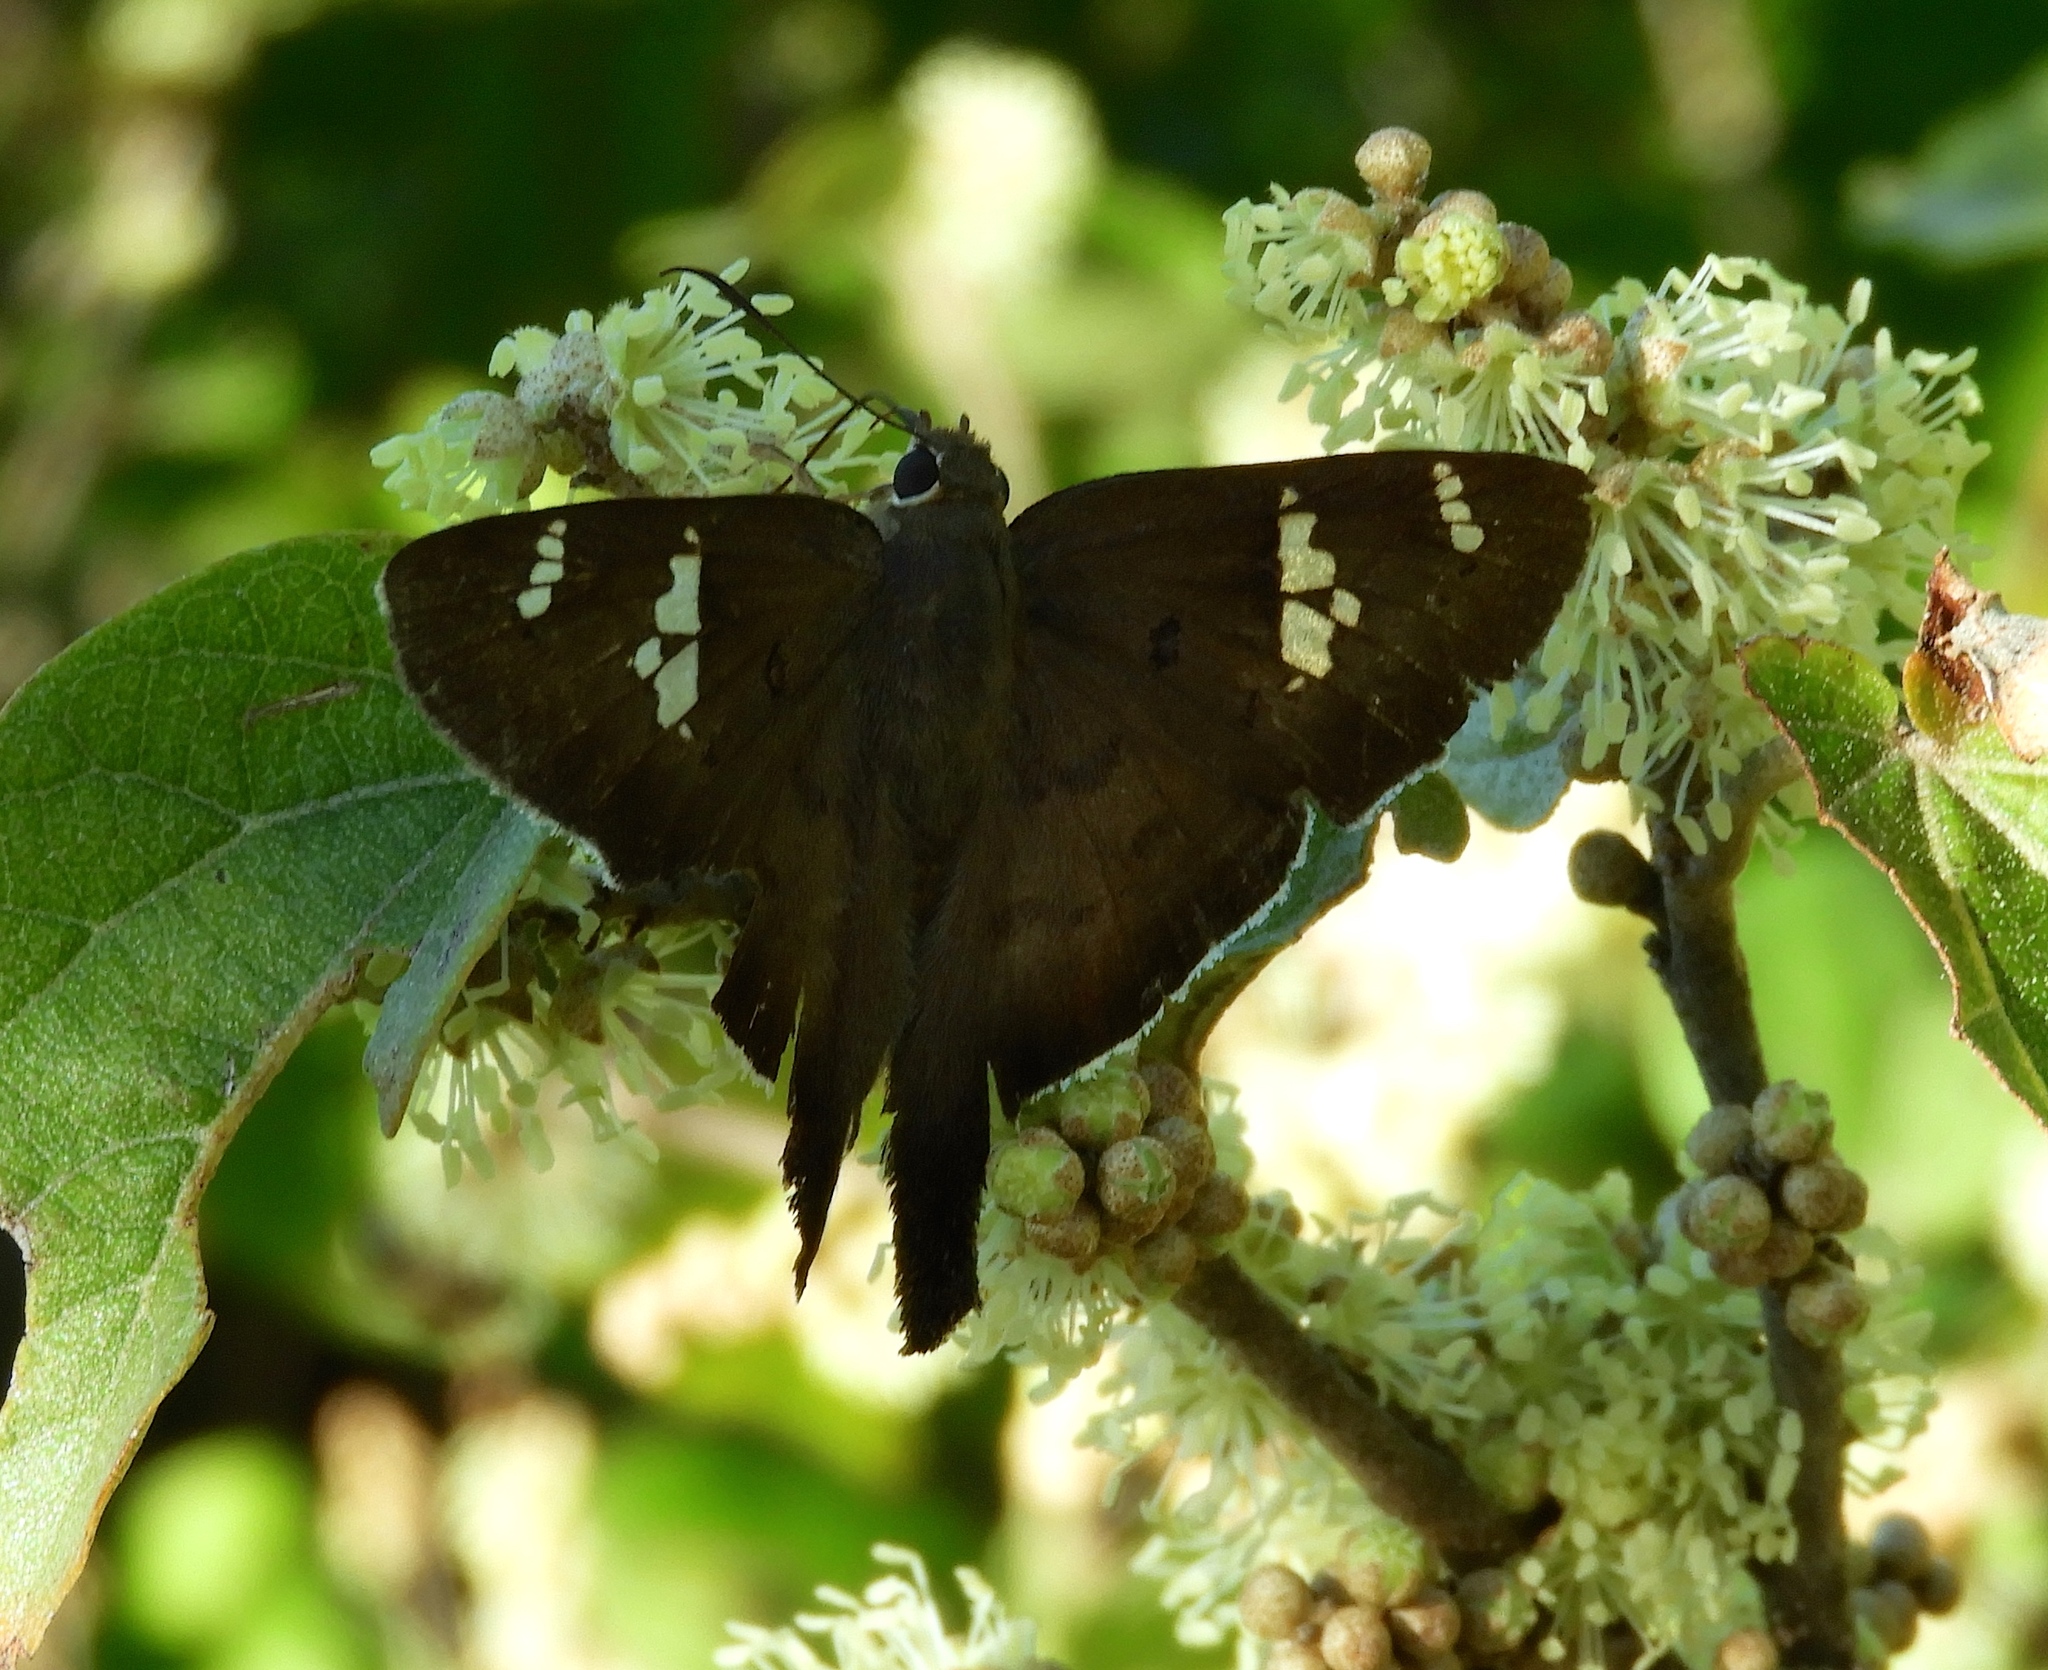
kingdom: Animalia
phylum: Arthropoda
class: Insecta
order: Lepidoptera
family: Hesperiidae
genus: Ectomis
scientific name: Ectomis
